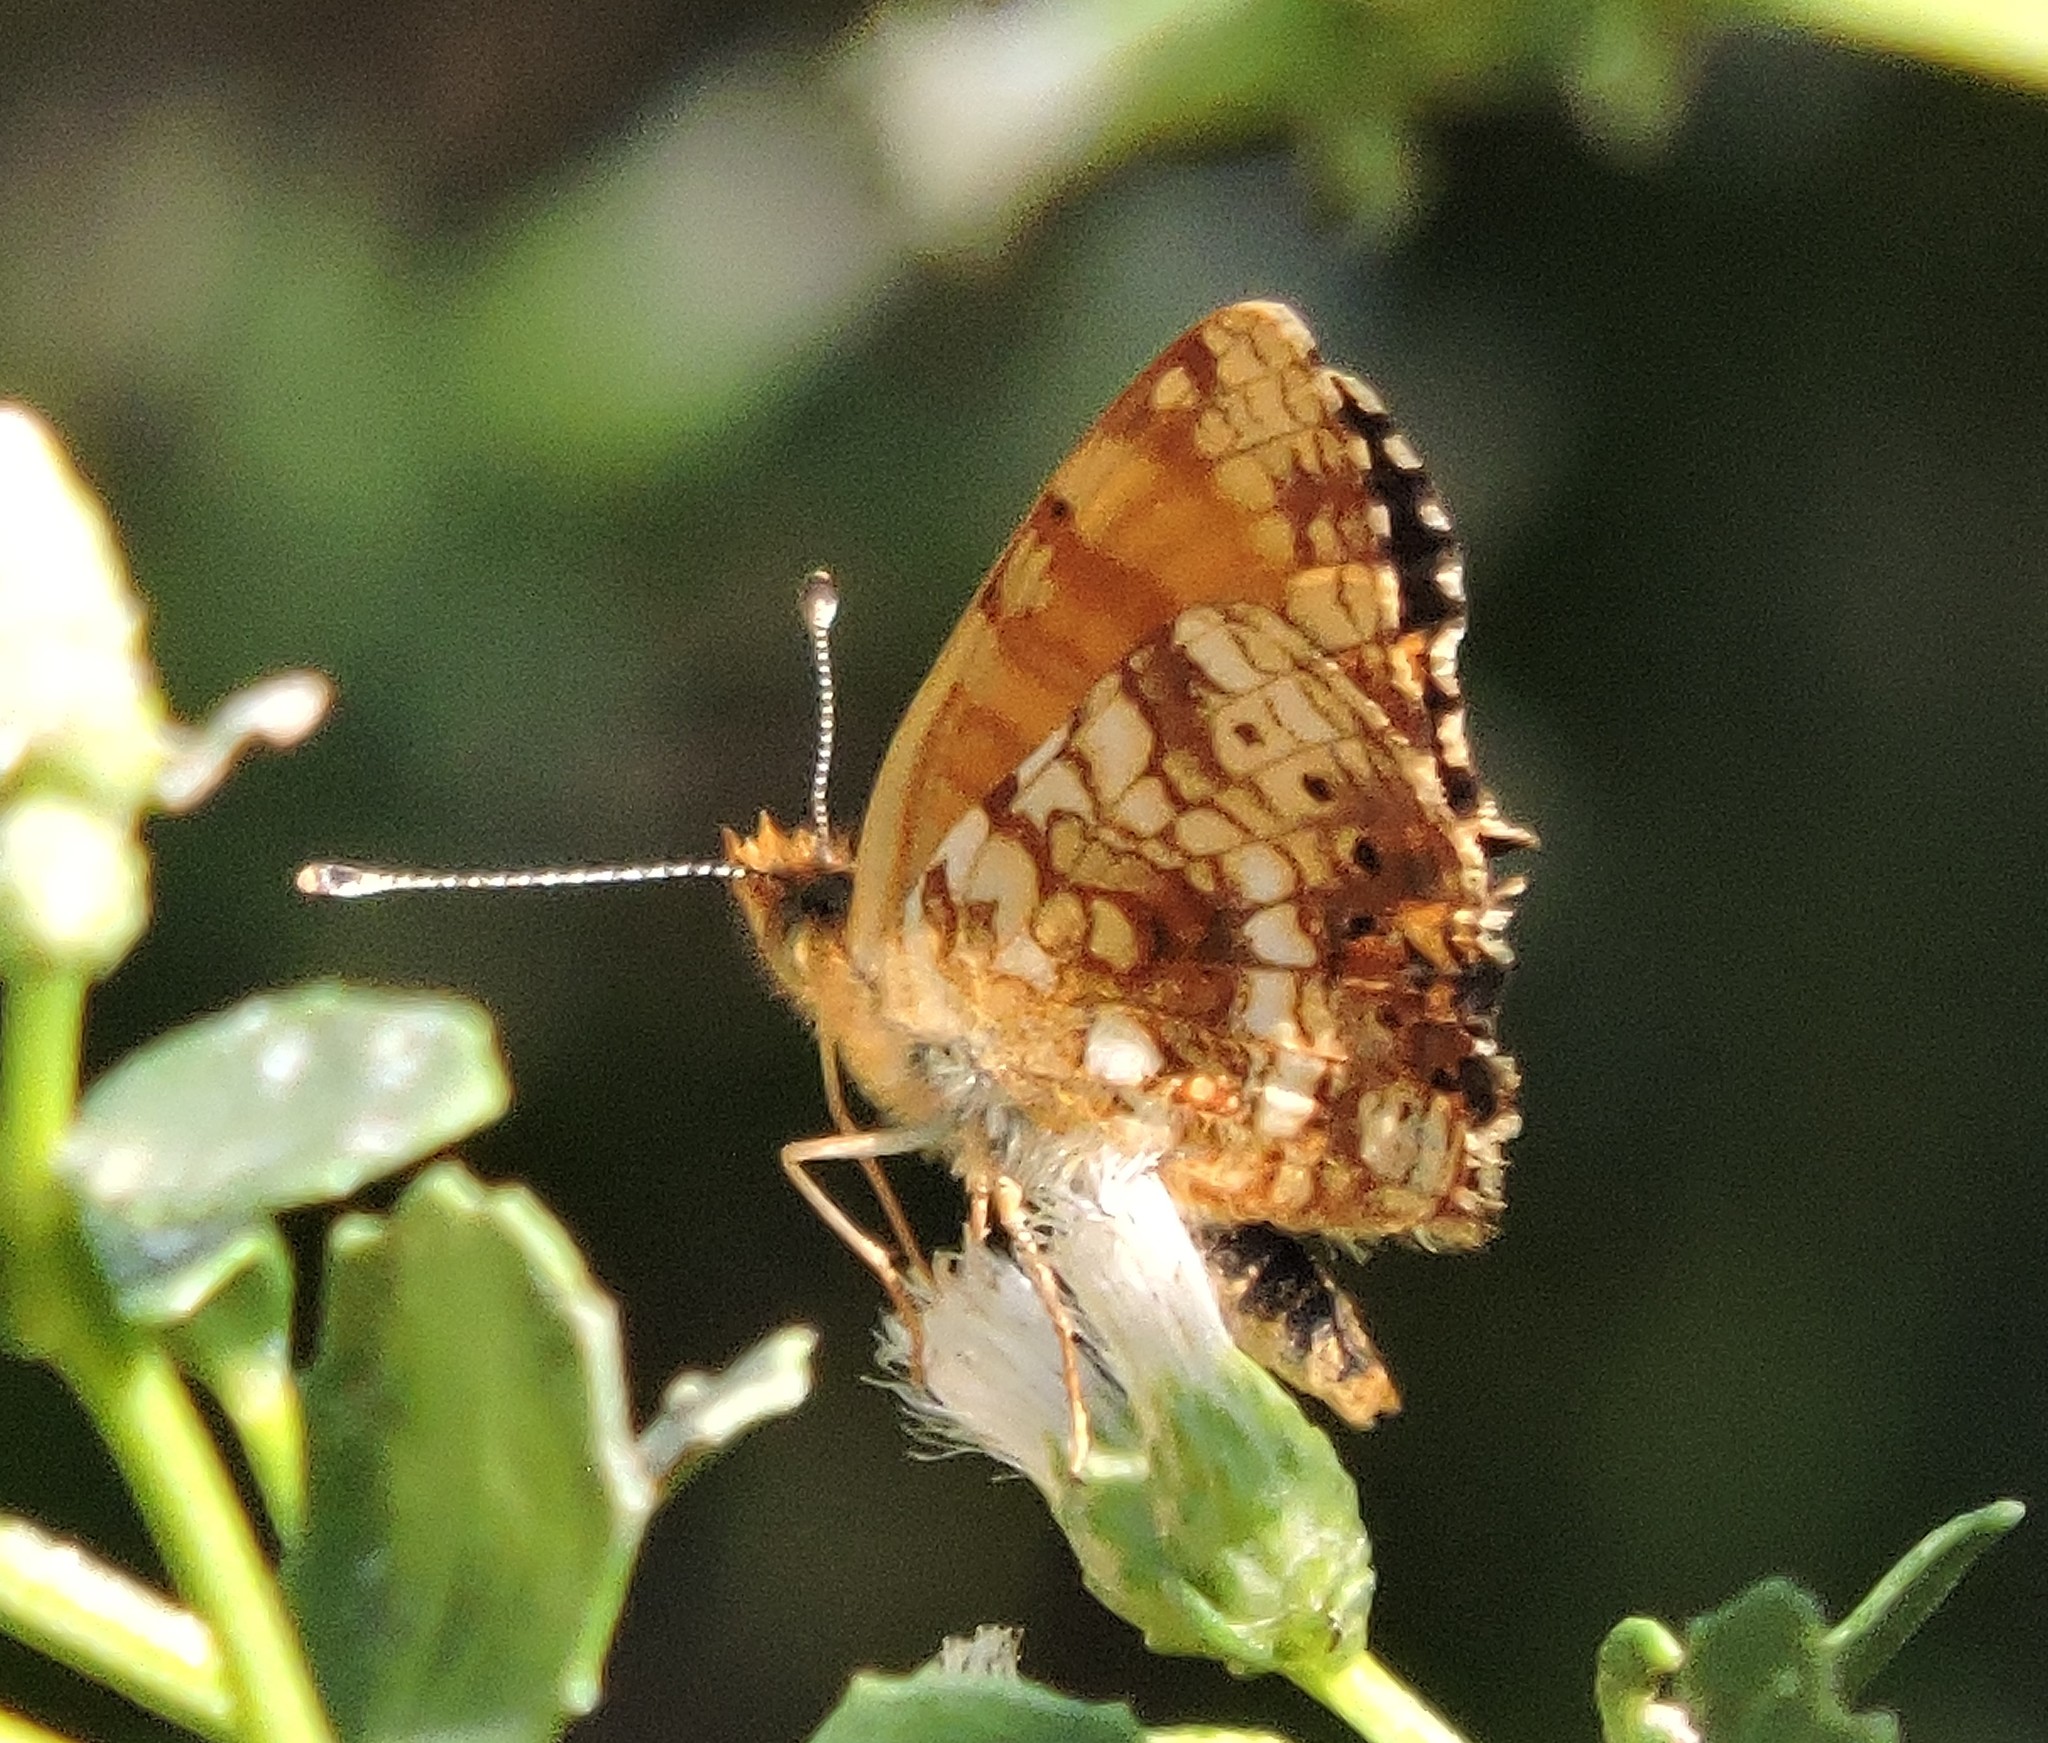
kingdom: Animalia
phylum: Arthropoda
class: Insecta
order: Lepidoptera
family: Nymphalidae
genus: Eresia
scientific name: Eresia aveyrona
